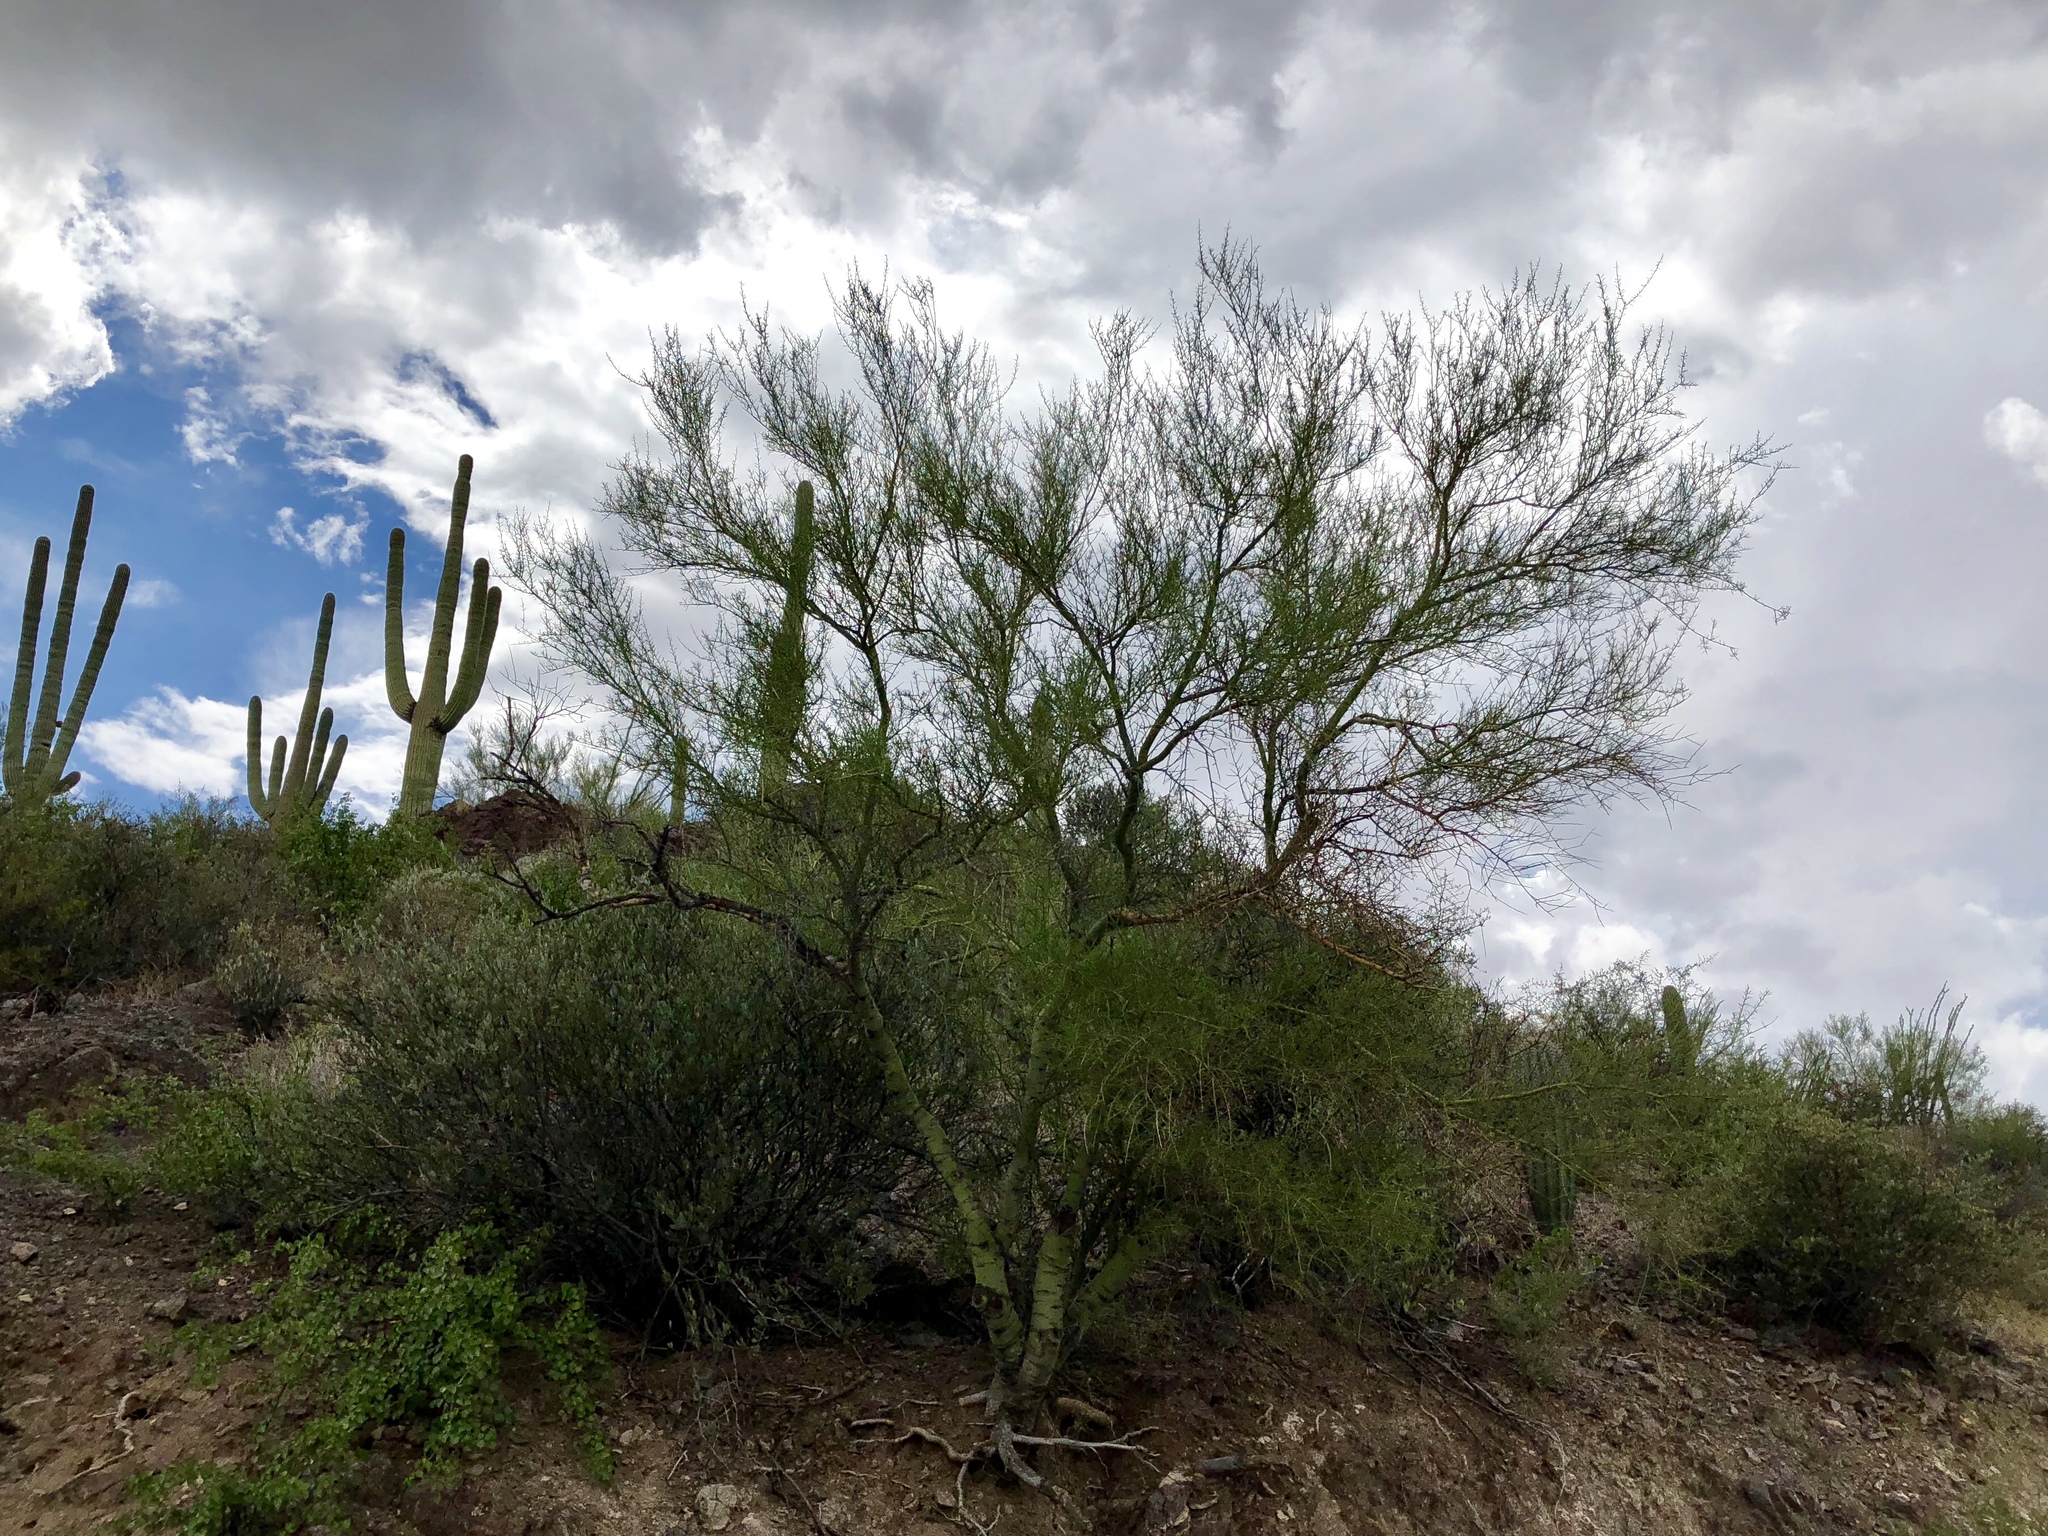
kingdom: Plantae
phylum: Tracheophyta
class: Magnoliopsida
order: Fabales
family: Fabaceae
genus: Parkinsonia
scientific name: Parkinsonia microphylla
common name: Yellow paloverde
